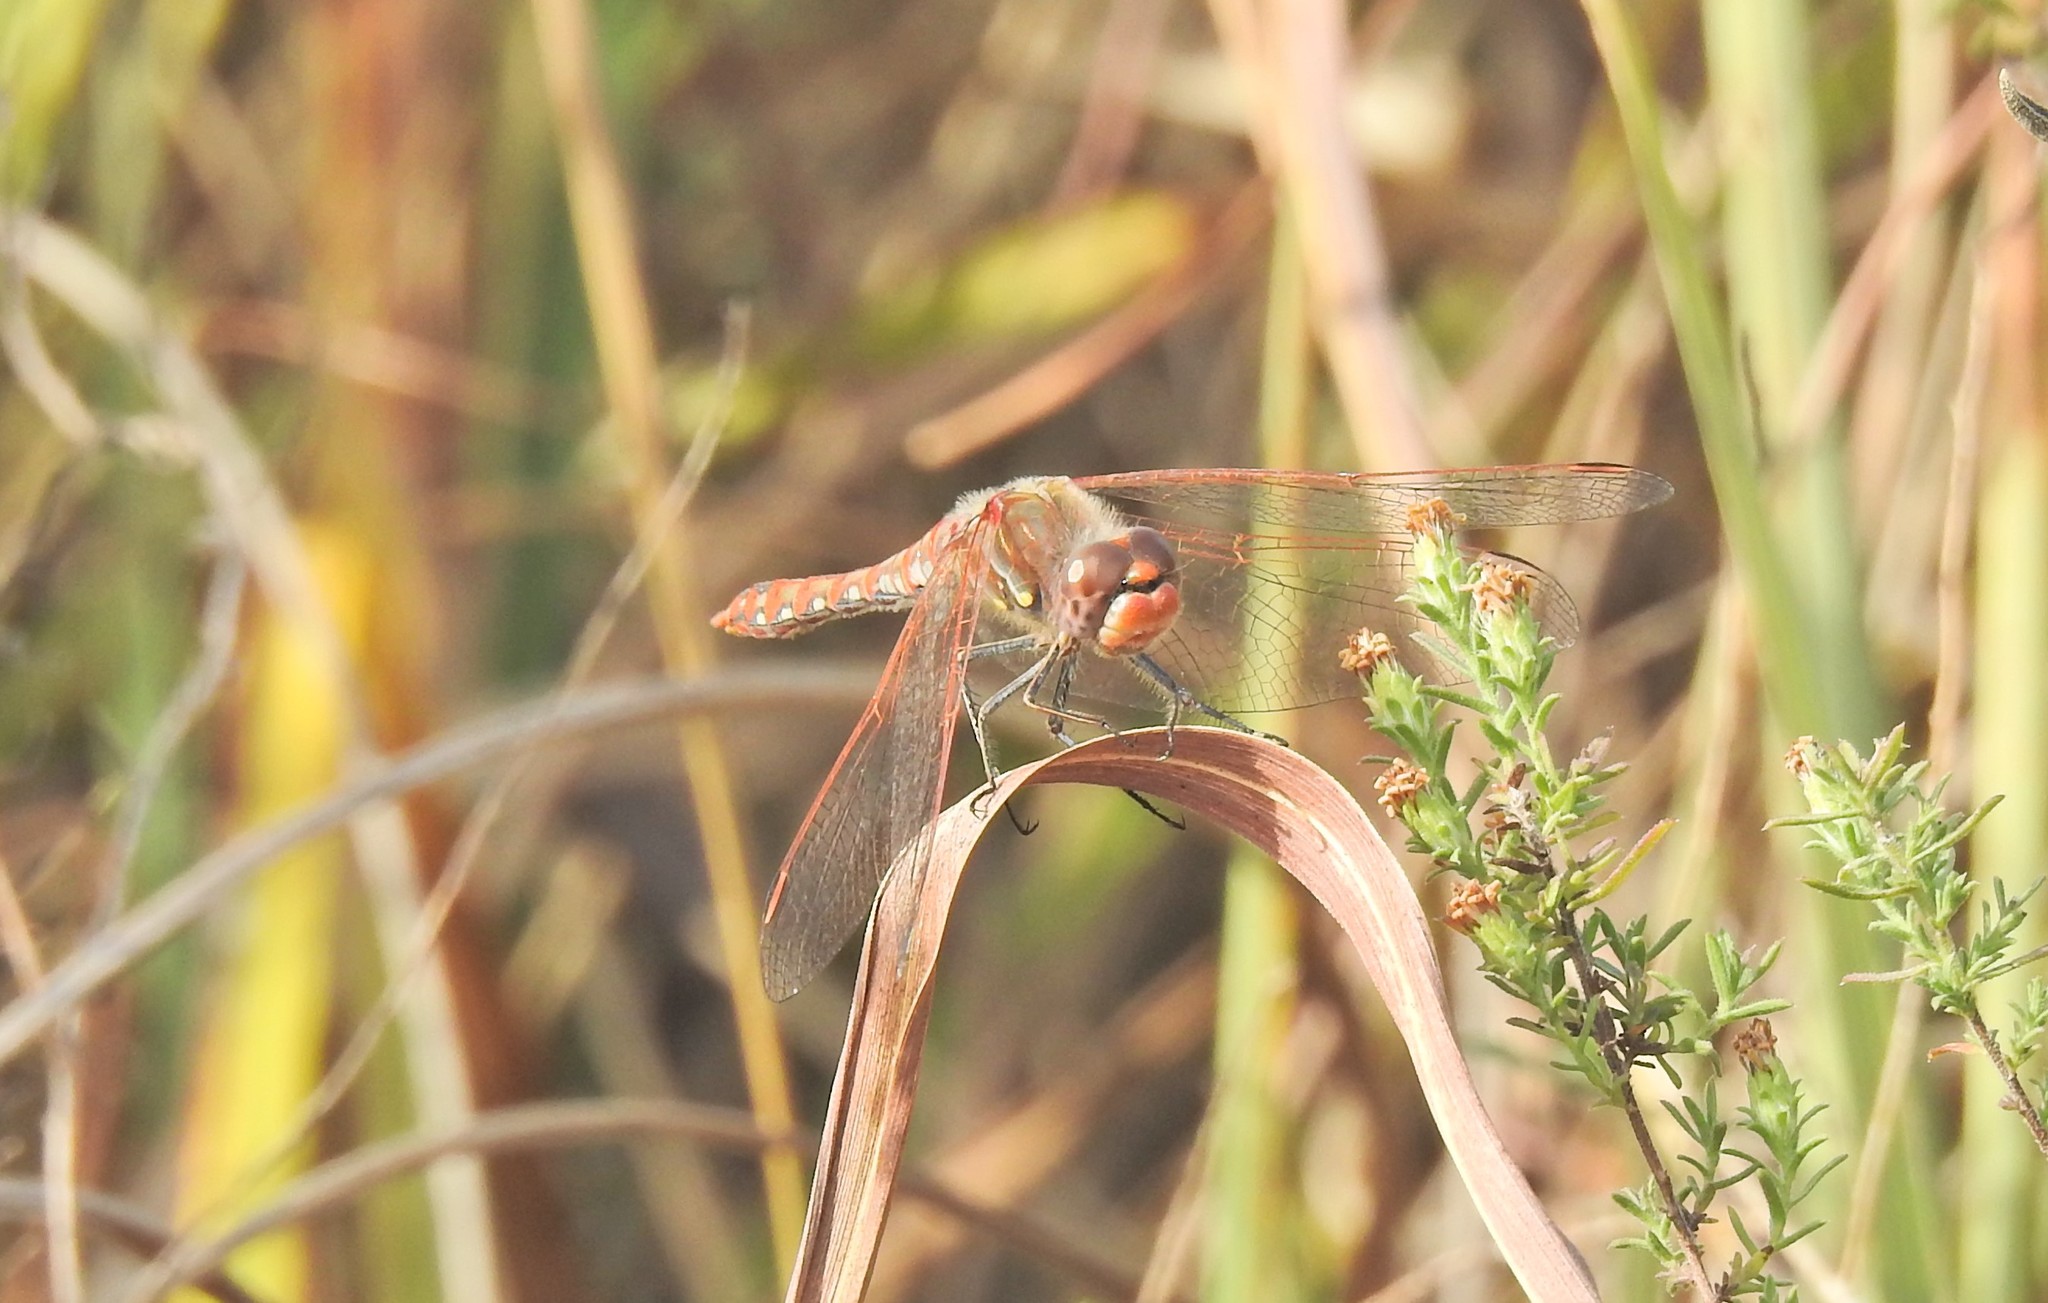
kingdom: Animalia
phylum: Arthropoda
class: Insecta
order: Odonata
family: Libellulidae
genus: Sympetrum
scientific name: Sympetrum corruptum
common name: Variegated meadowhawk
